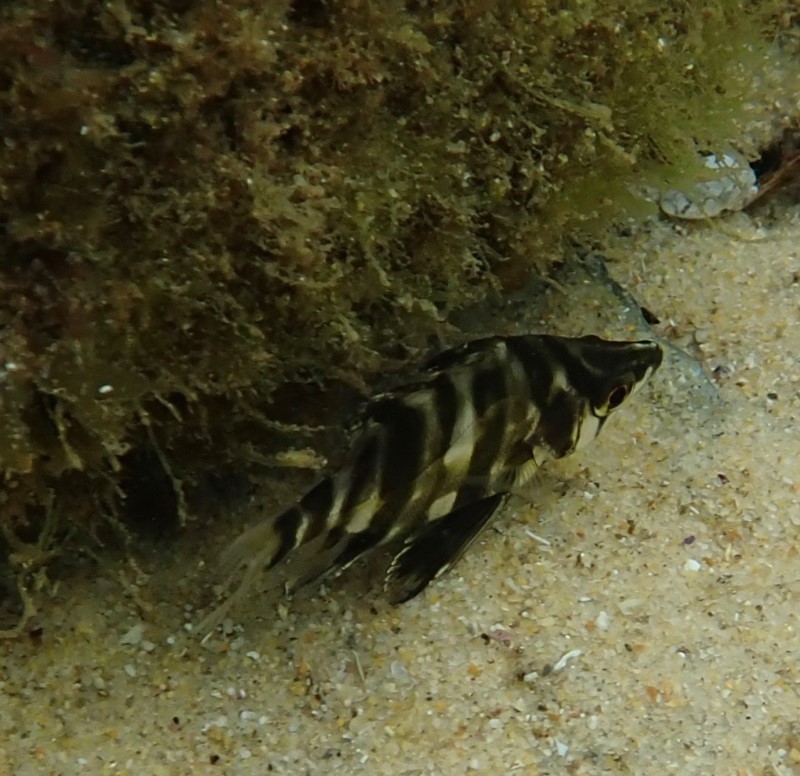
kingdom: Animalia
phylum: Chordata
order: Perciformes
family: Enoplosidae
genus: Enoplosus
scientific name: Enoplosus armatus
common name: Old wife
